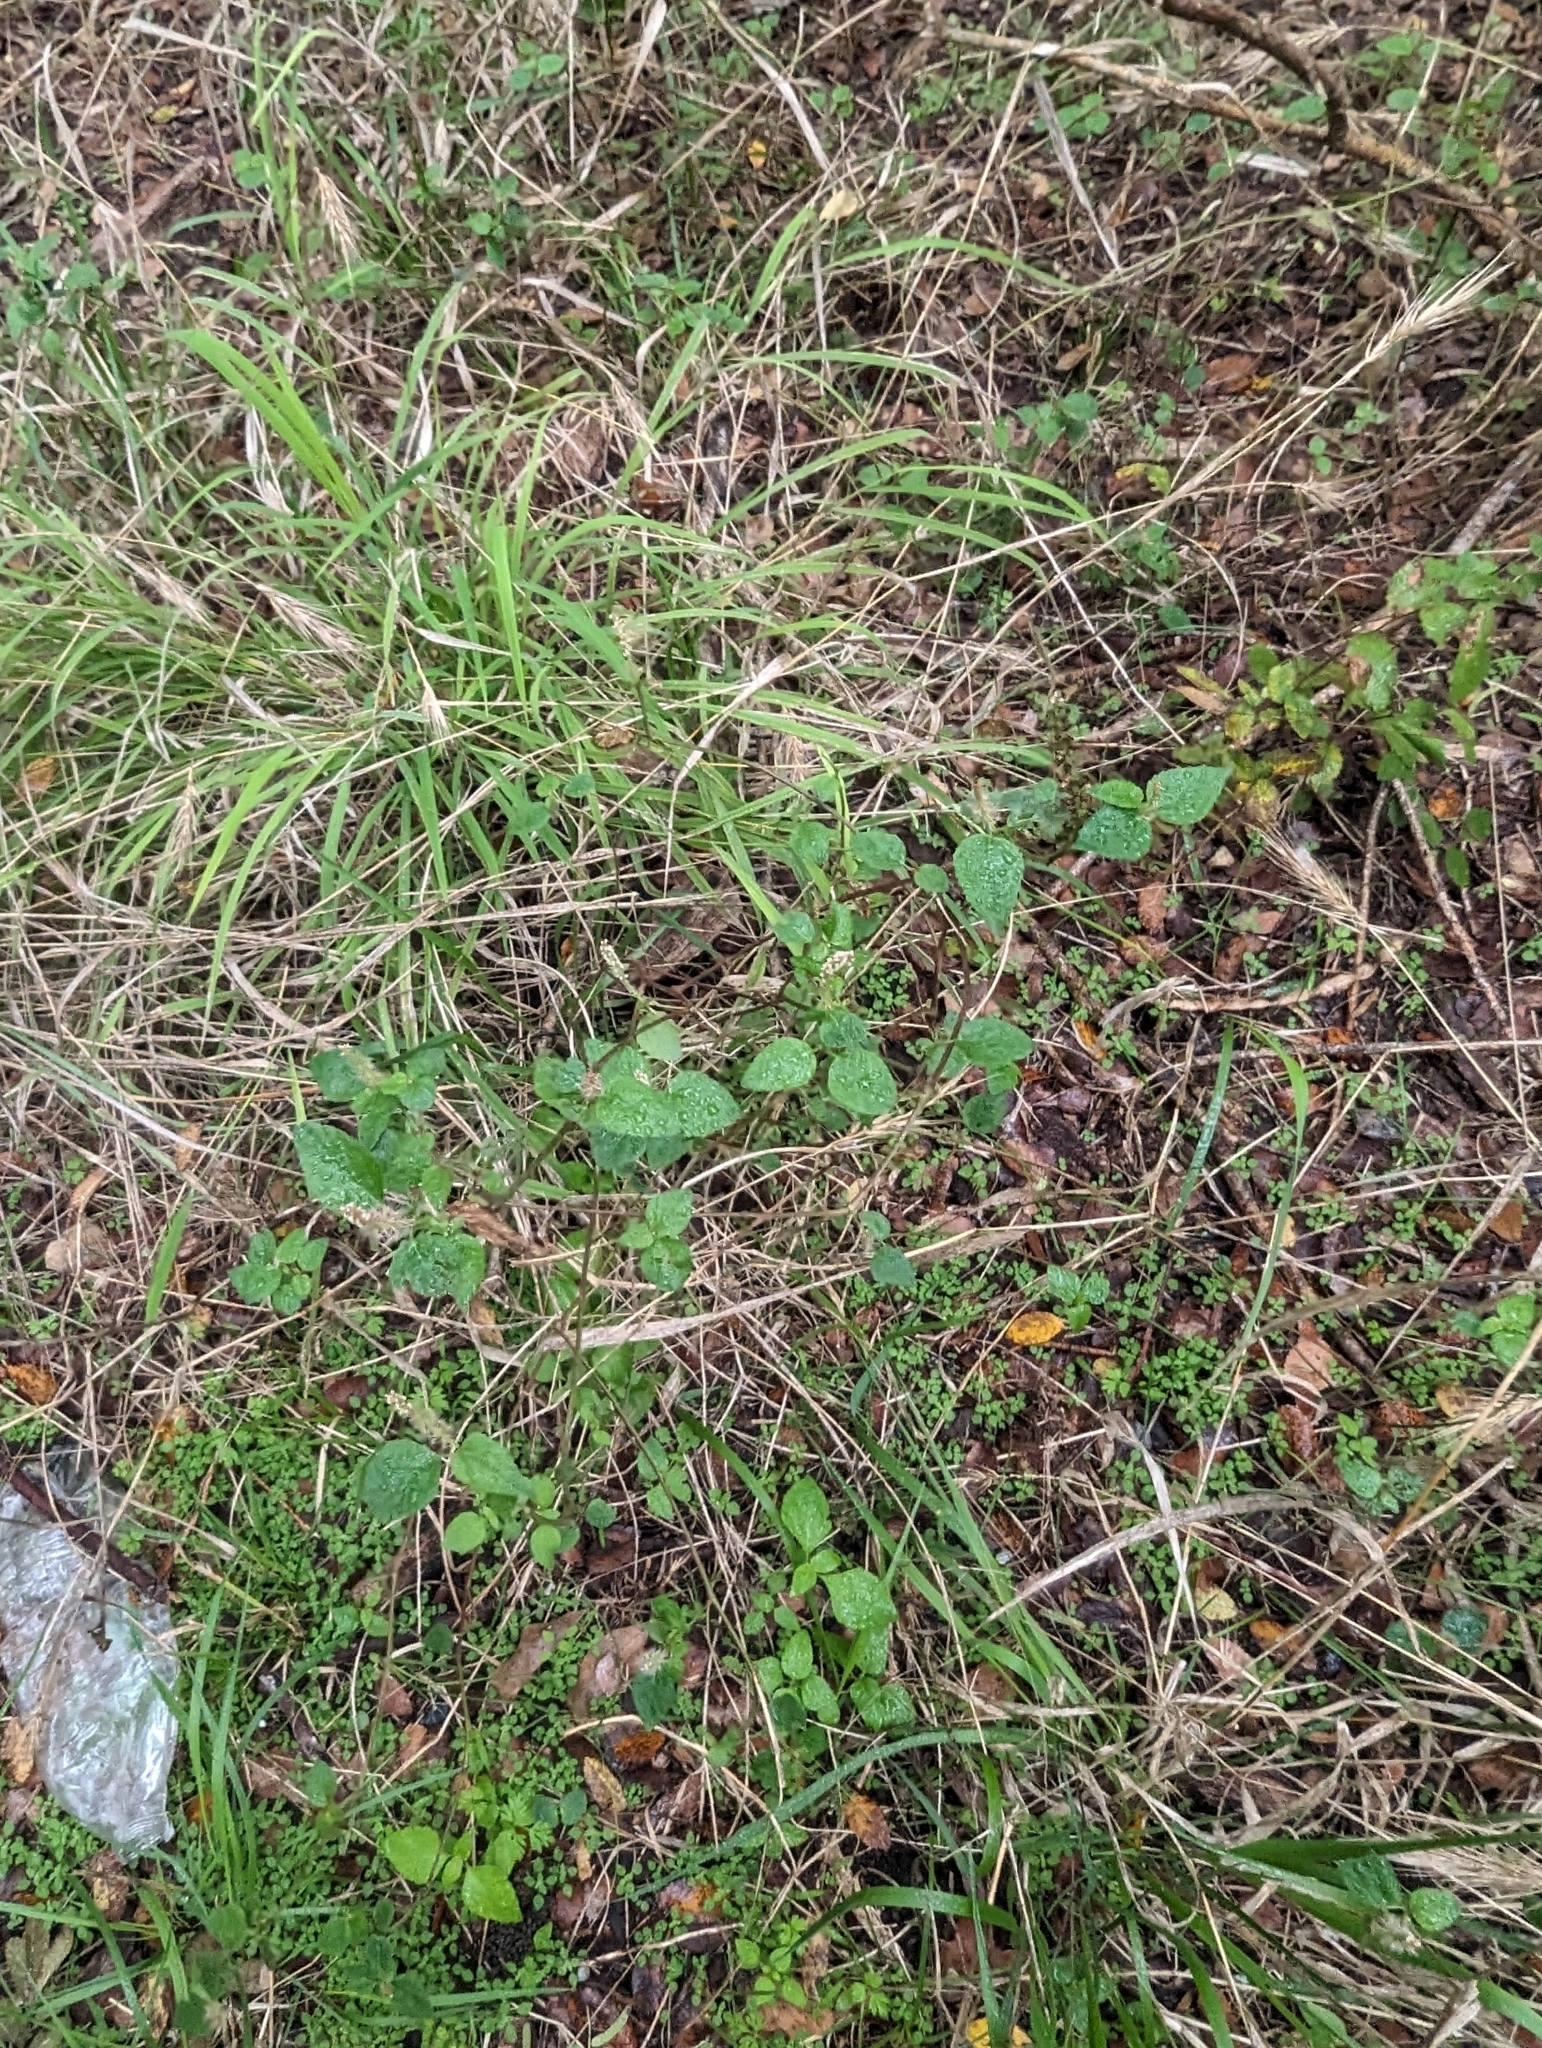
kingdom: Plantae
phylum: Tracheophyta
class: Magnoliopsida
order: Malpighiales
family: Euphorbiaceae
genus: Acalypha
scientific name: Acalypha phleoides
